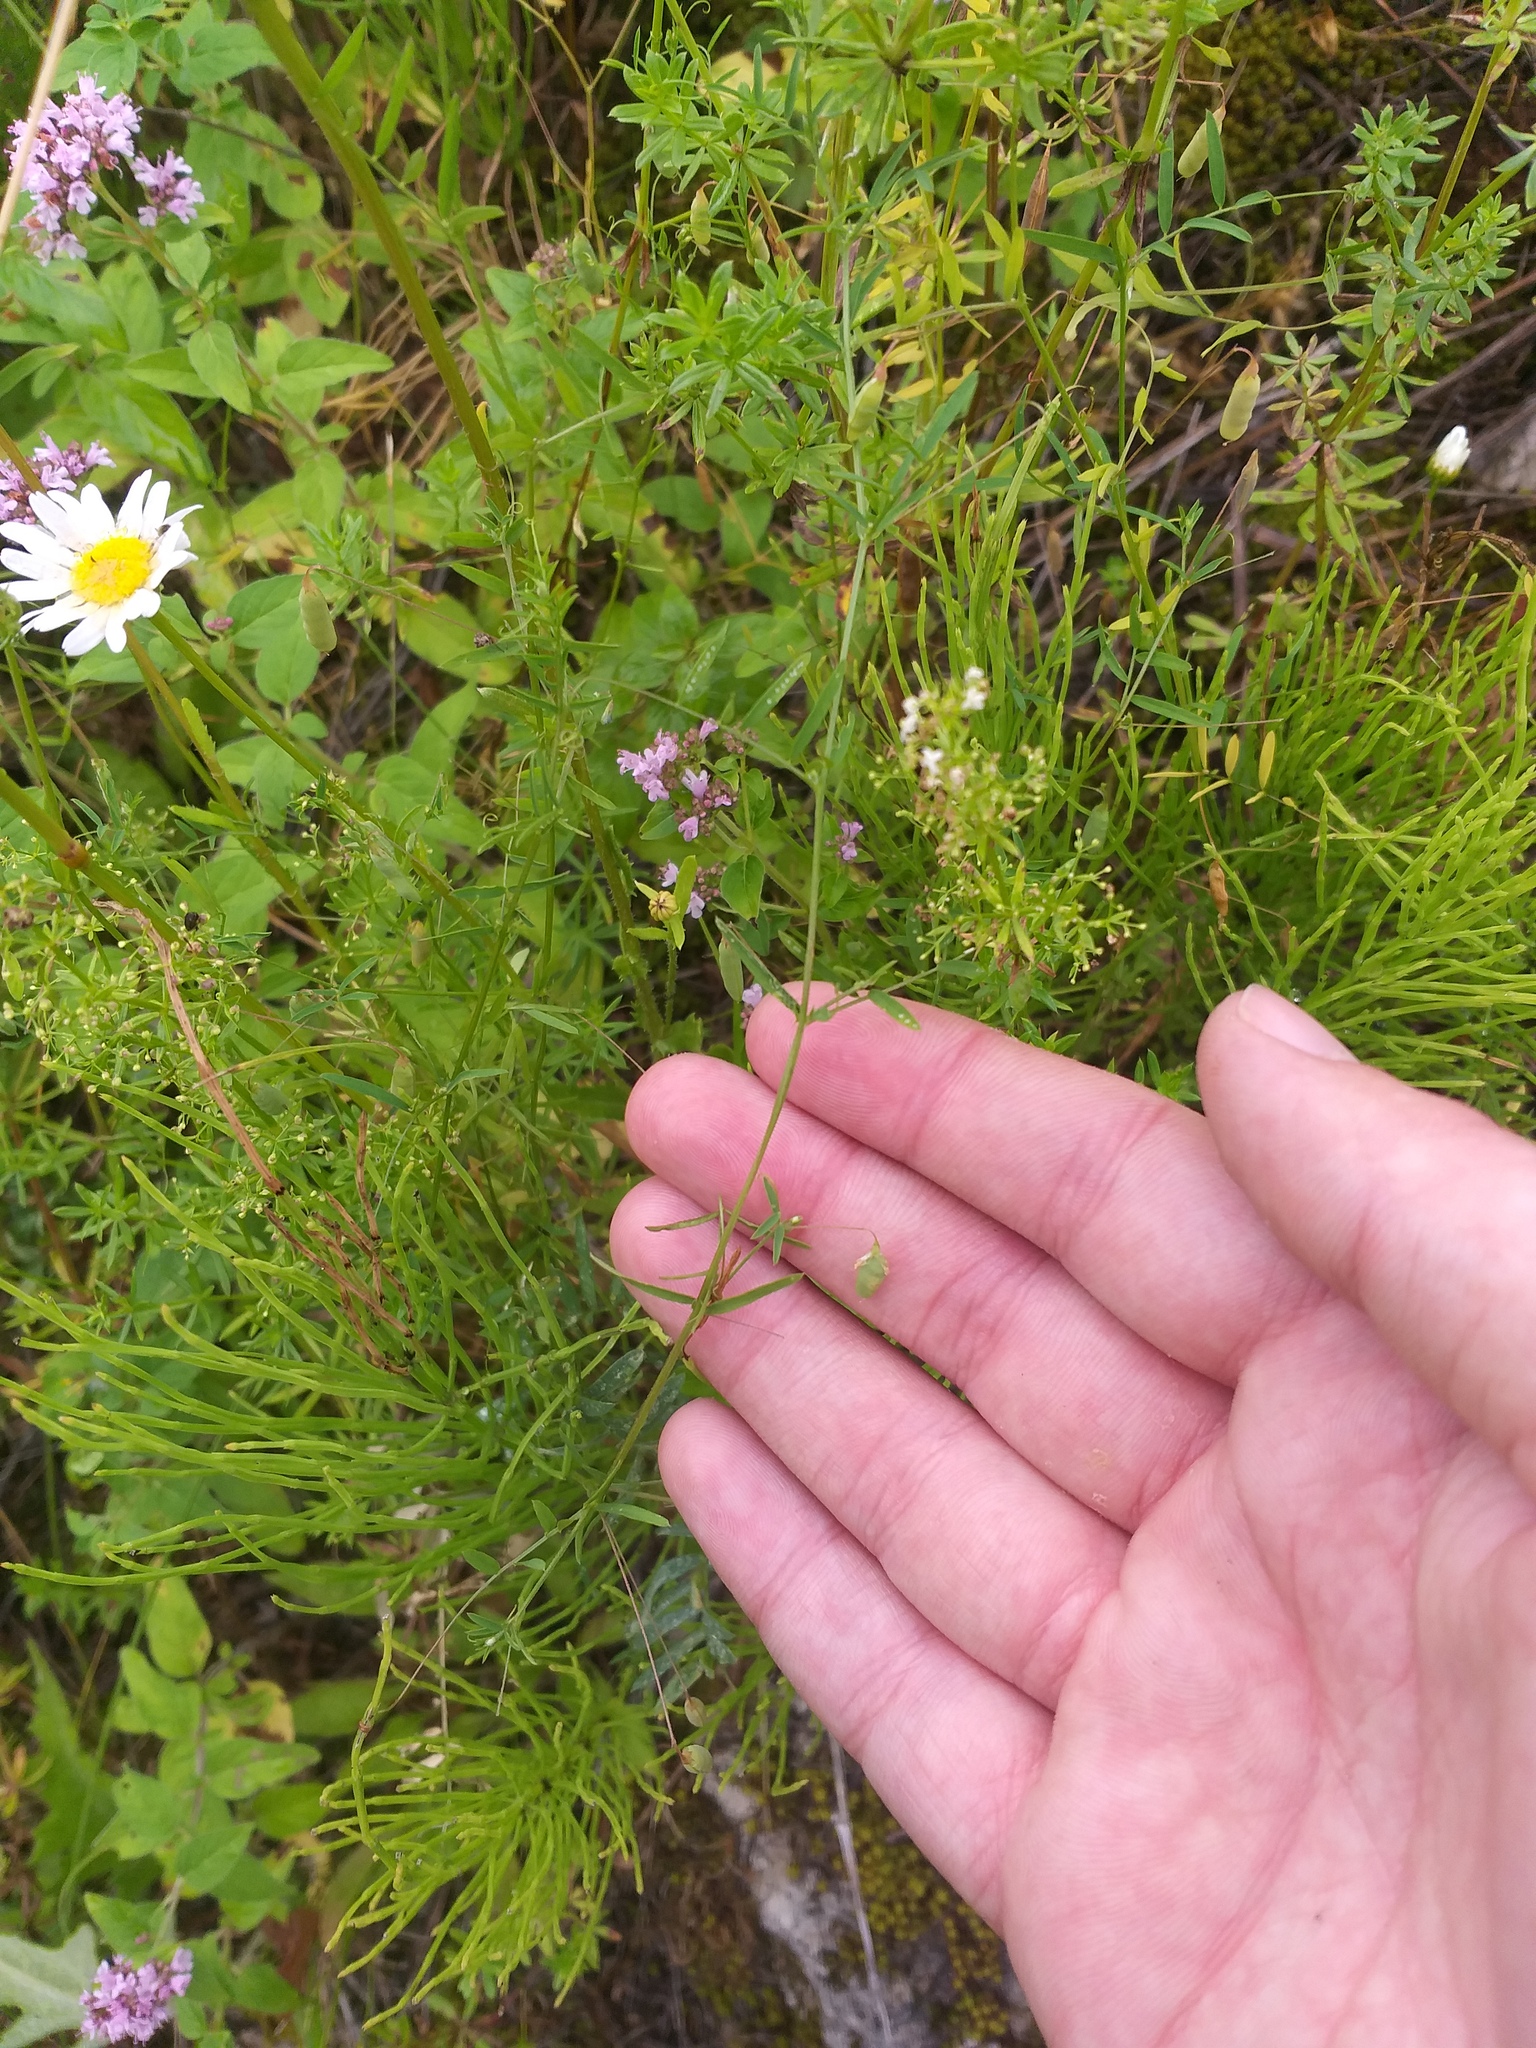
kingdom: Plantae
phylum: Tracheophyta
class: Magnoliopsida
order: Fabales
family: Fabaceae
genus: Vicia
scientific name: Vicia tetrasperma
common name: Smooth tare
